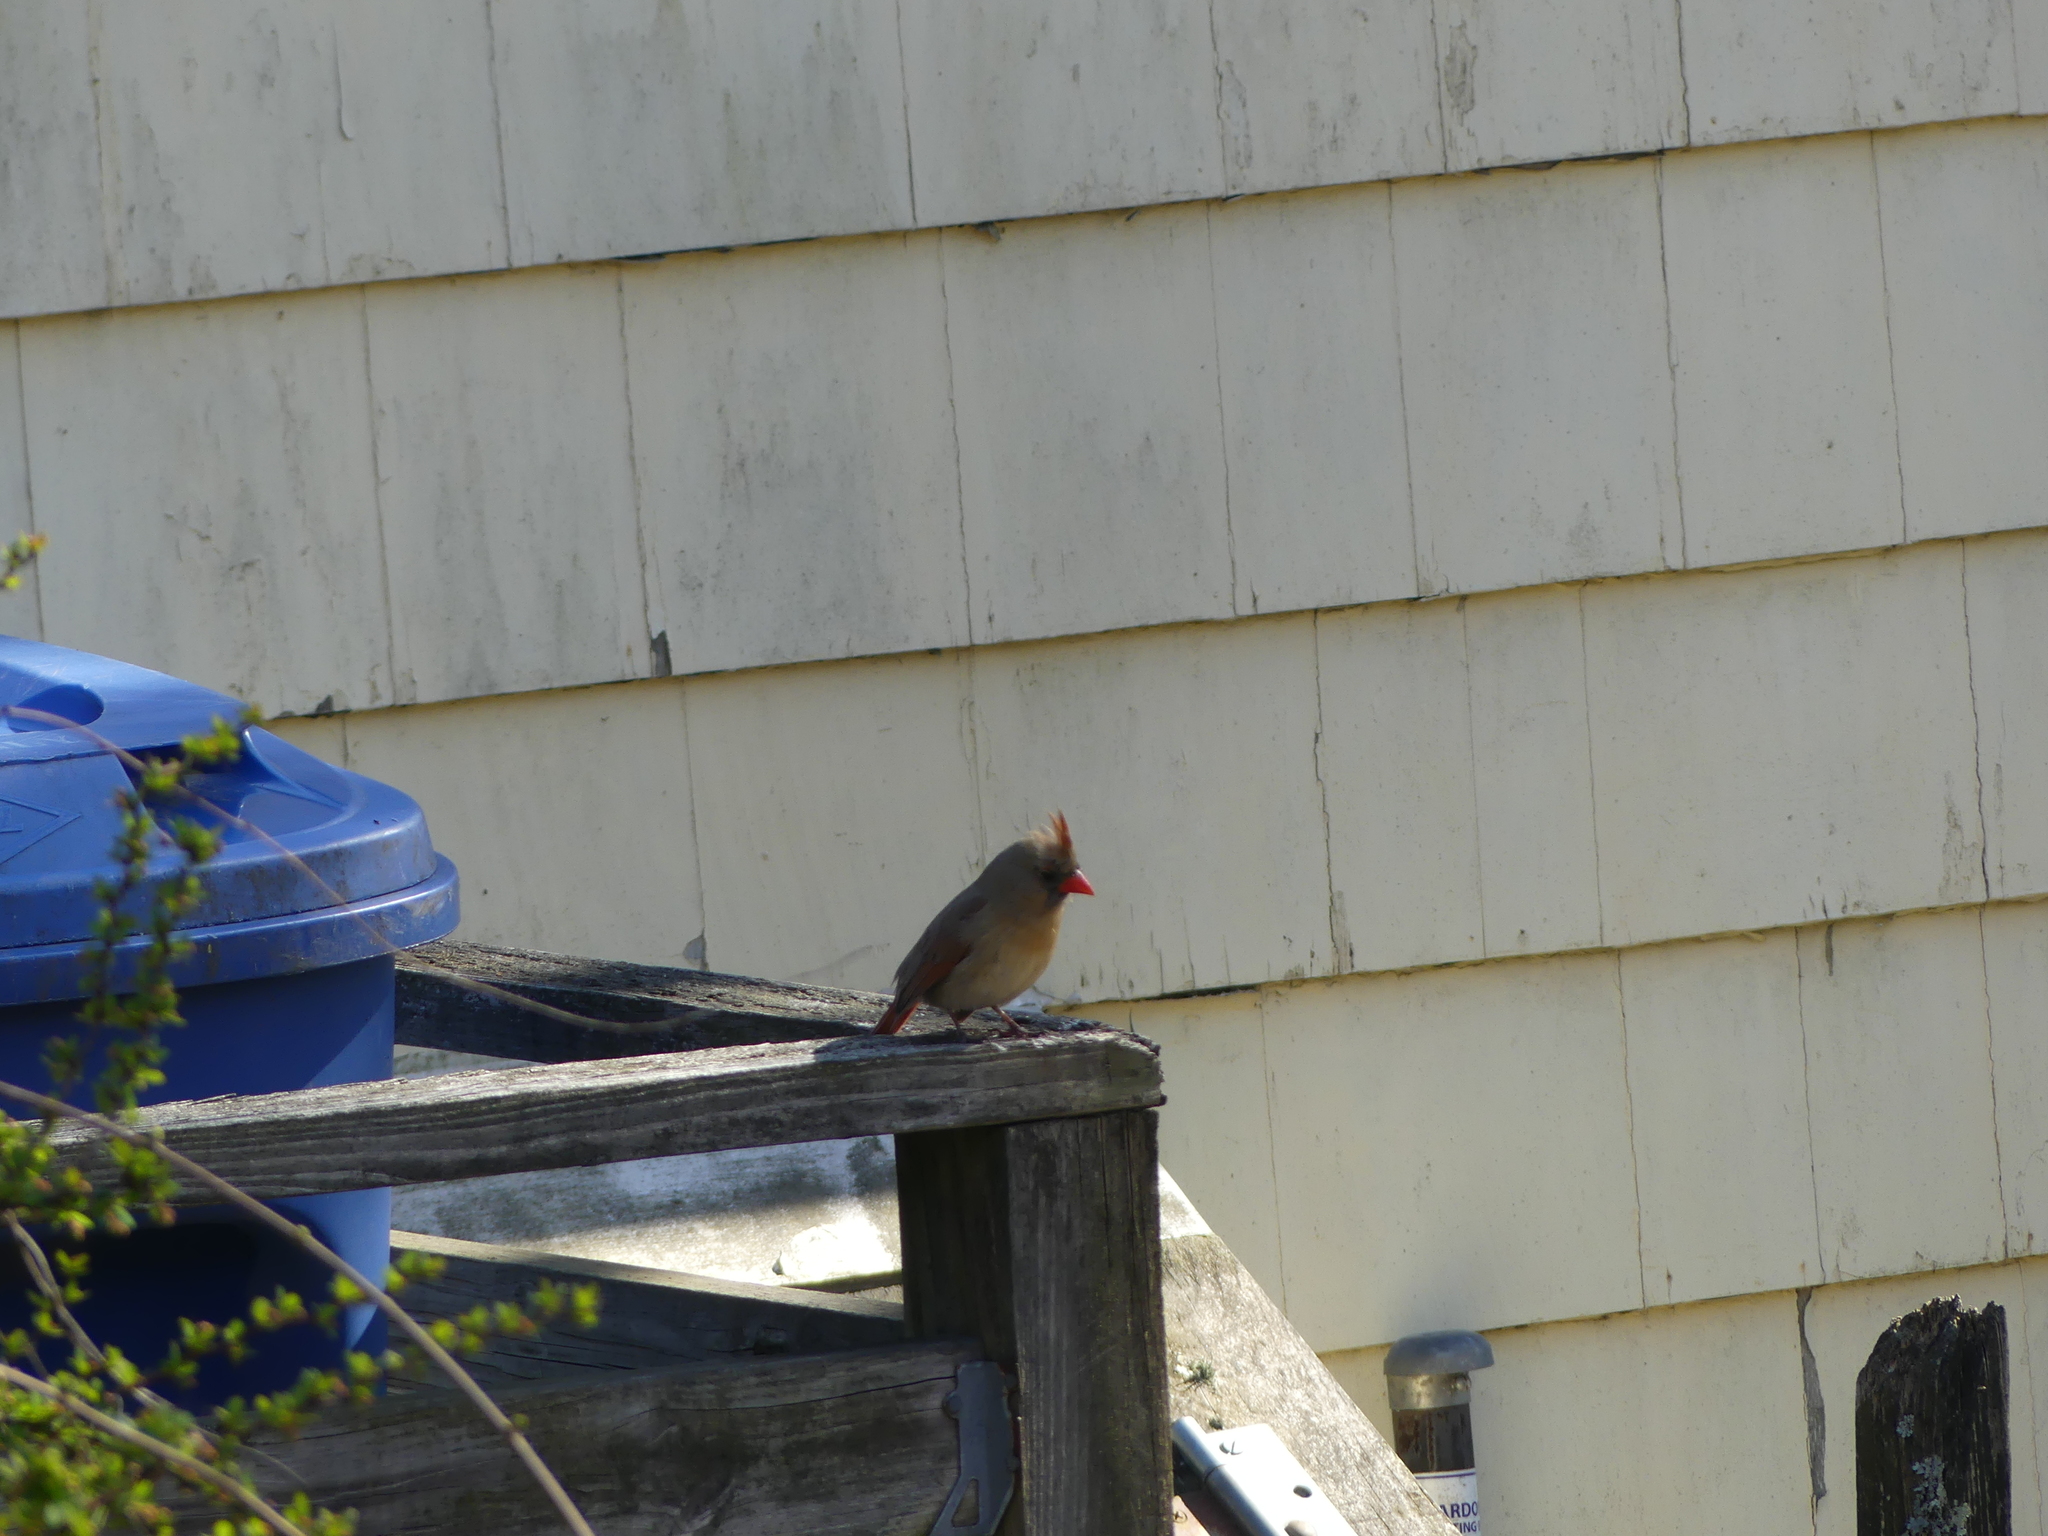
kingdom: Animalia
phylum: Chordata
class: Aves
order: Passeriformes
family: Cardinalidae
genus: Cardinalis
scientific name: Cardinalis cardinalis
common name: Northern cardinal
